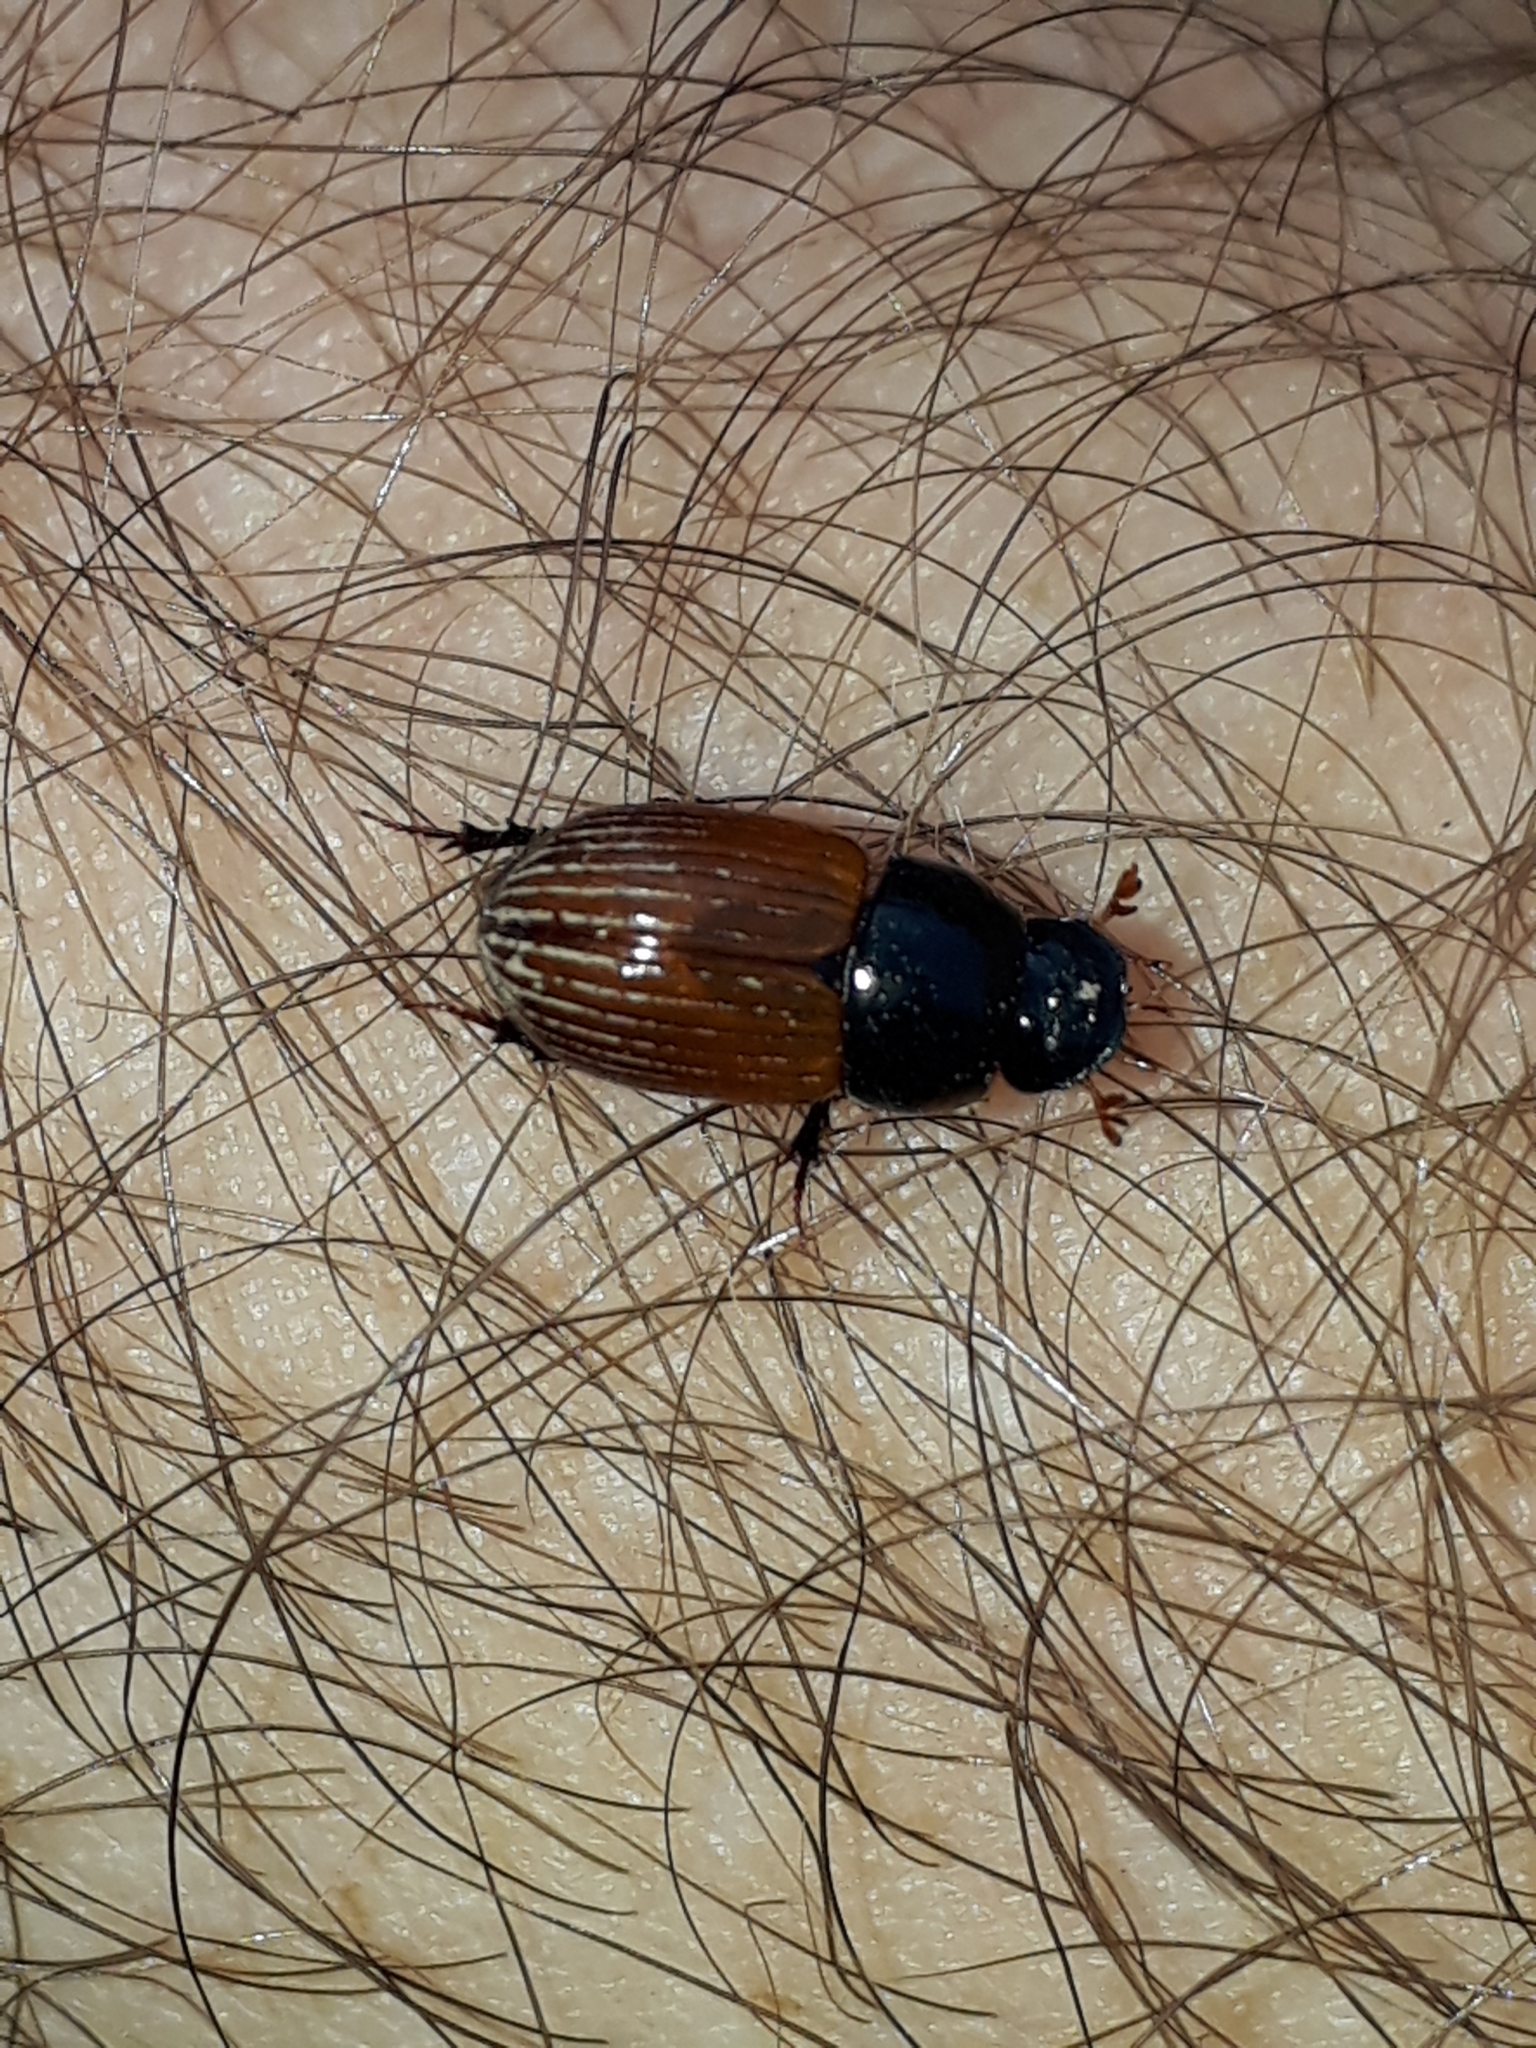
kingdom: Animalia
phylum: Arthropoda
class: Insecta
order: Coleoptera
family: Scarabaeidae
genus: Aphodius
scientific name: Aphodius fimetarius
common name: Common dung beetle
